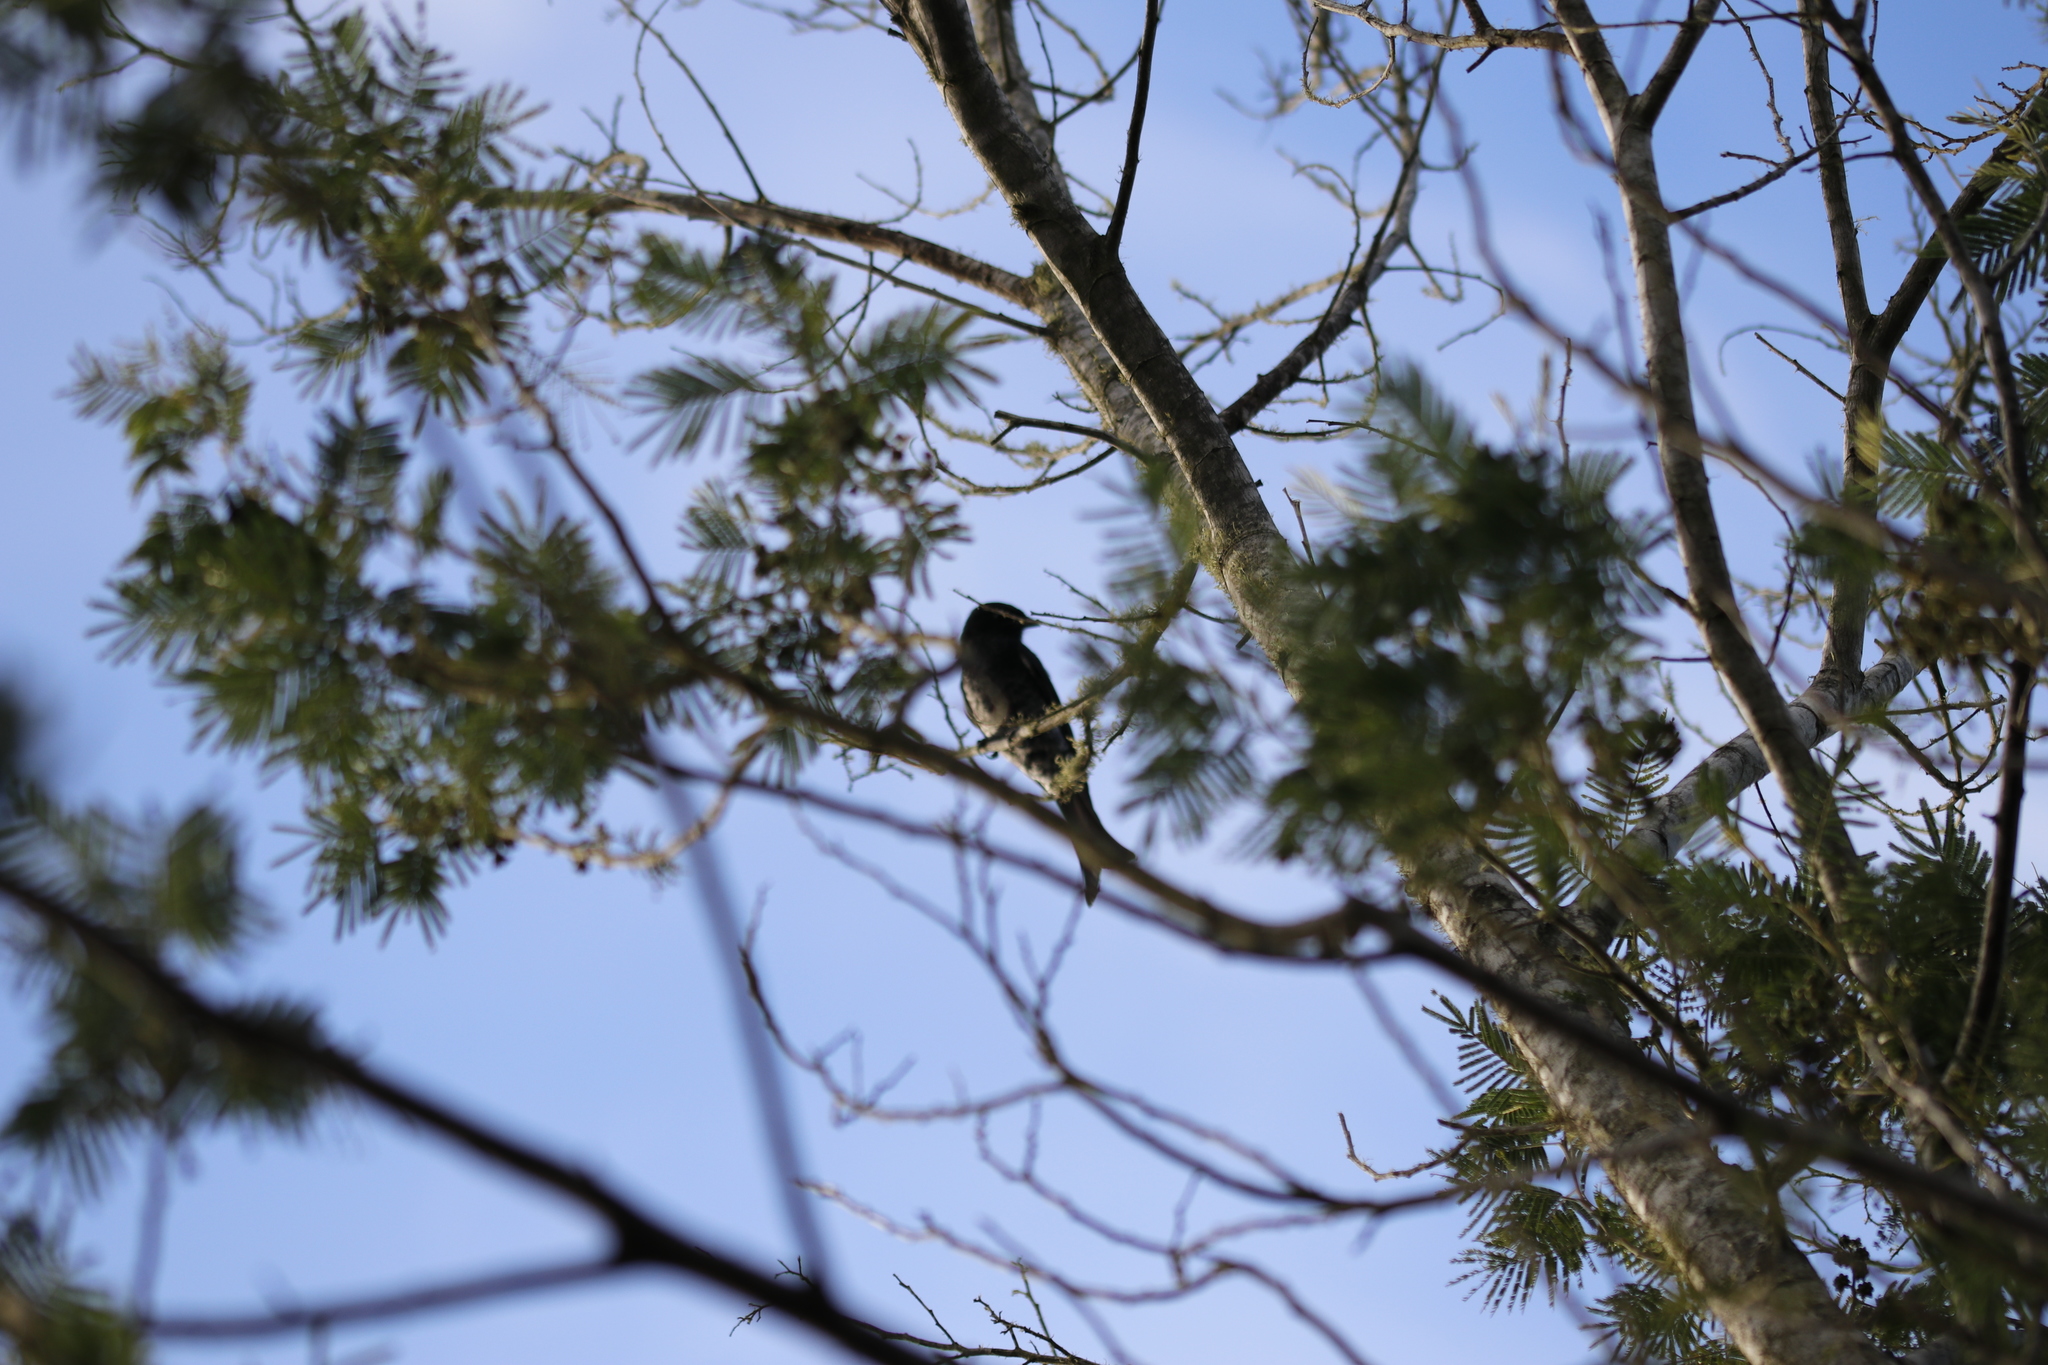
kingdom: Animalia
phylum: Chordata
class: Aves
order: Passeriformes
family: Dicruridae
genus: Dicrurus
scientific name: Dicrurus adsimilis
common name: Fork-tailed drongo
